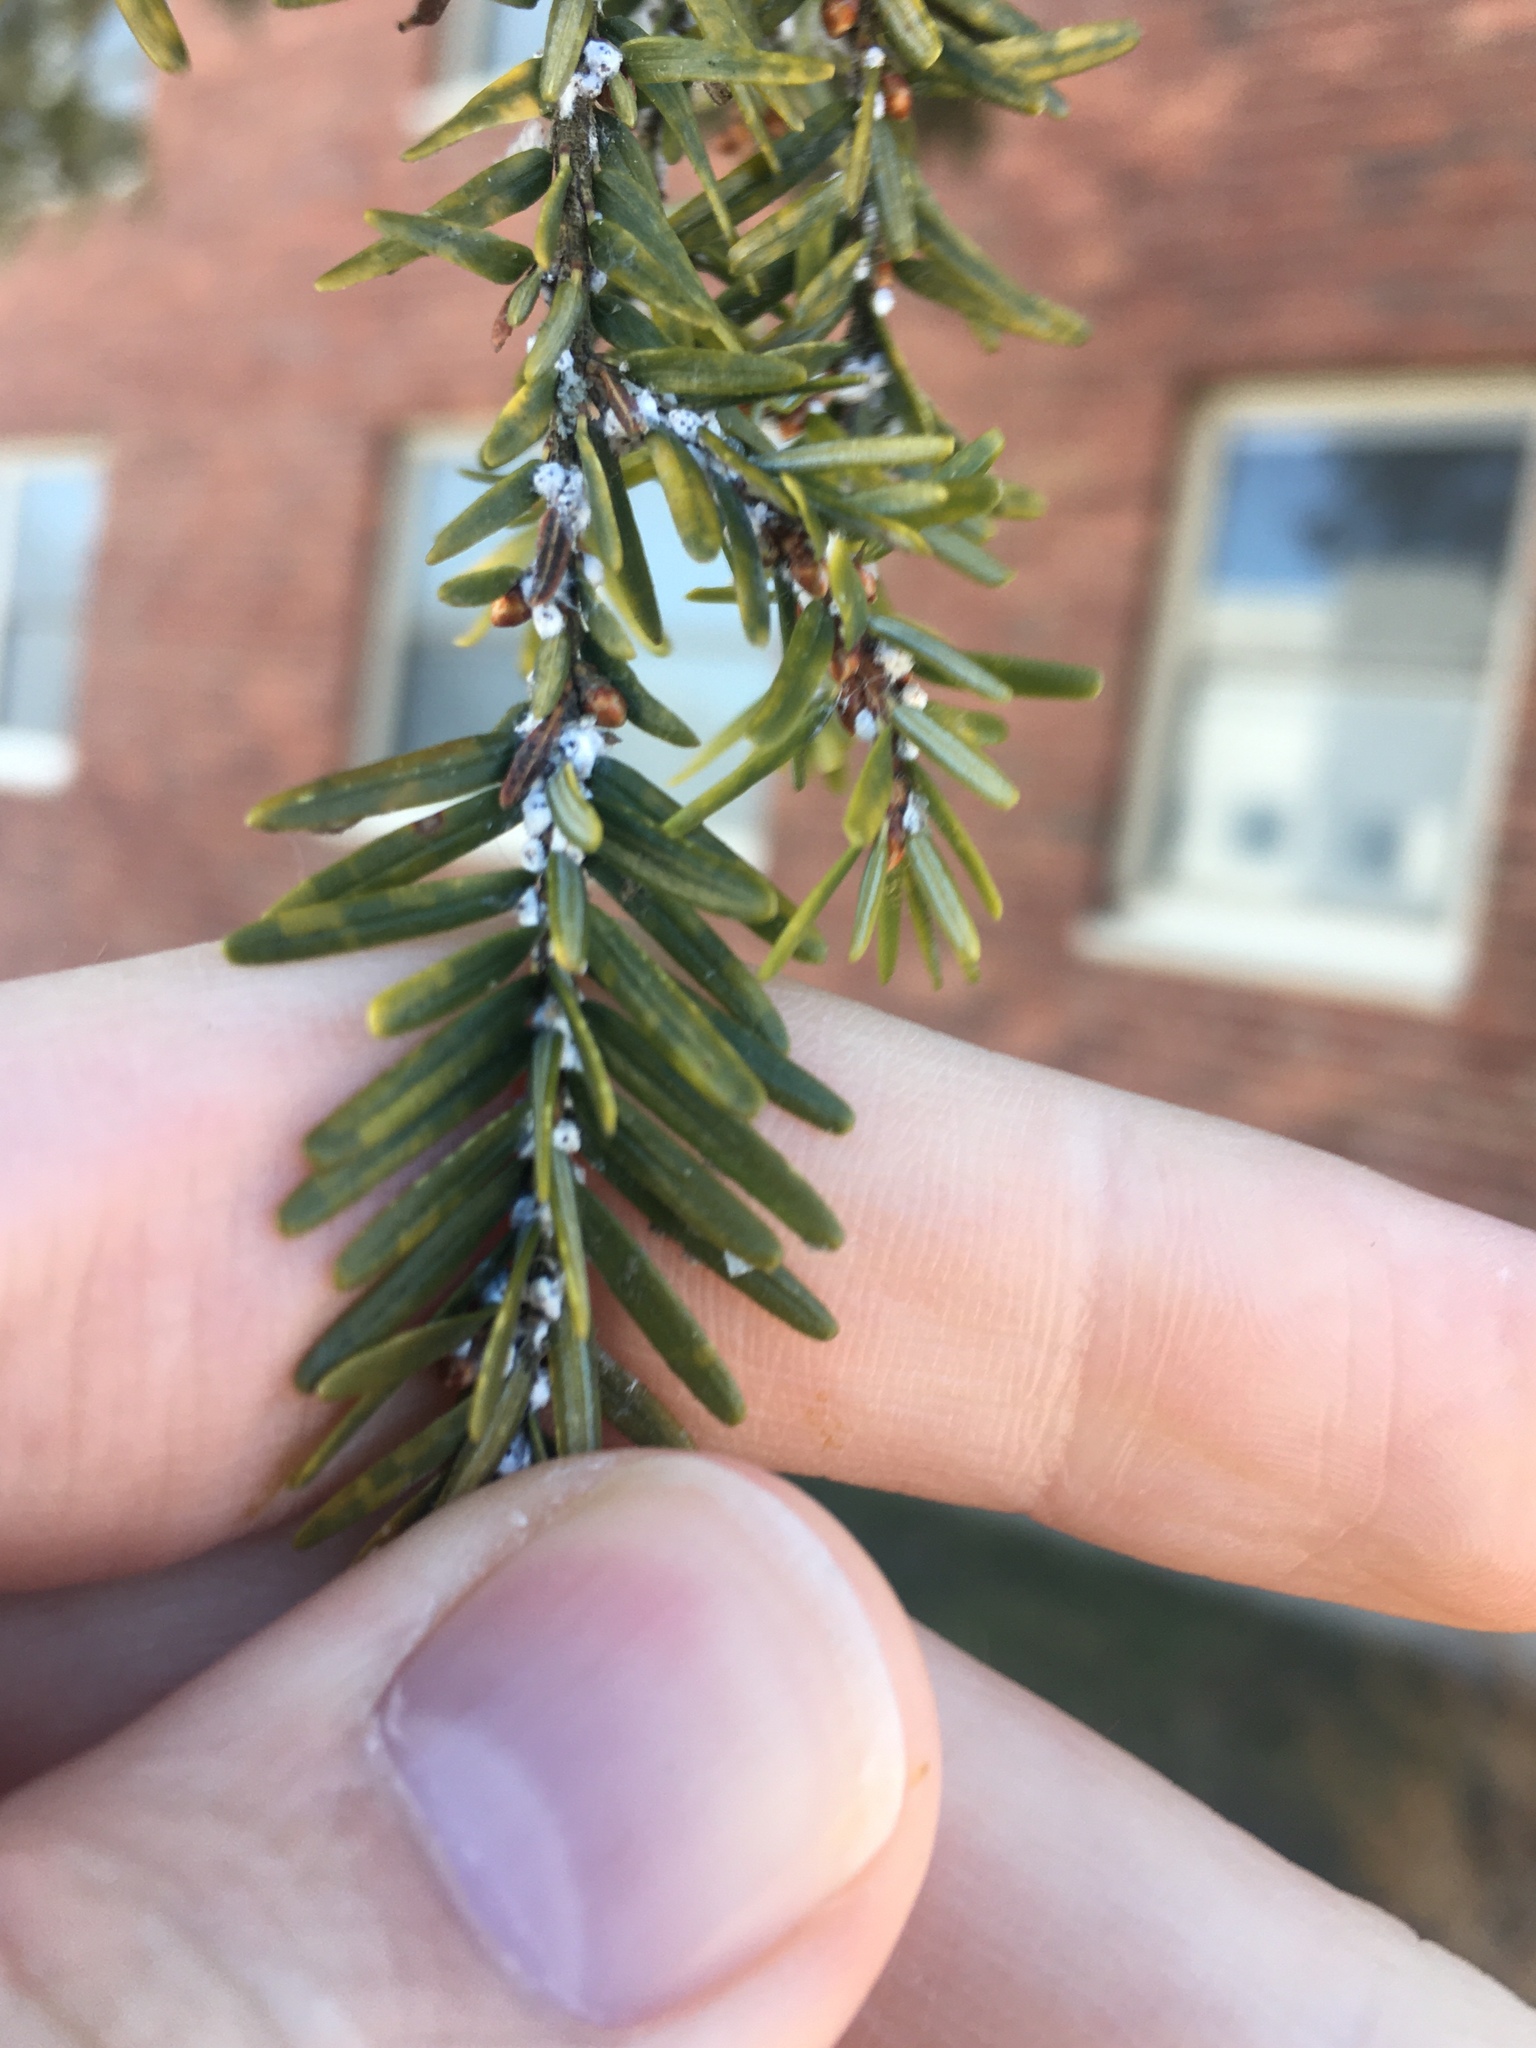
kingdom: Animalia
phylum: Arthropoda
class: Insecta
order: Hemiptera
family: Adelgidae
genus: Adelges
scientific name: Adelges tsugae
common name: Hemlock woolly adelgid
